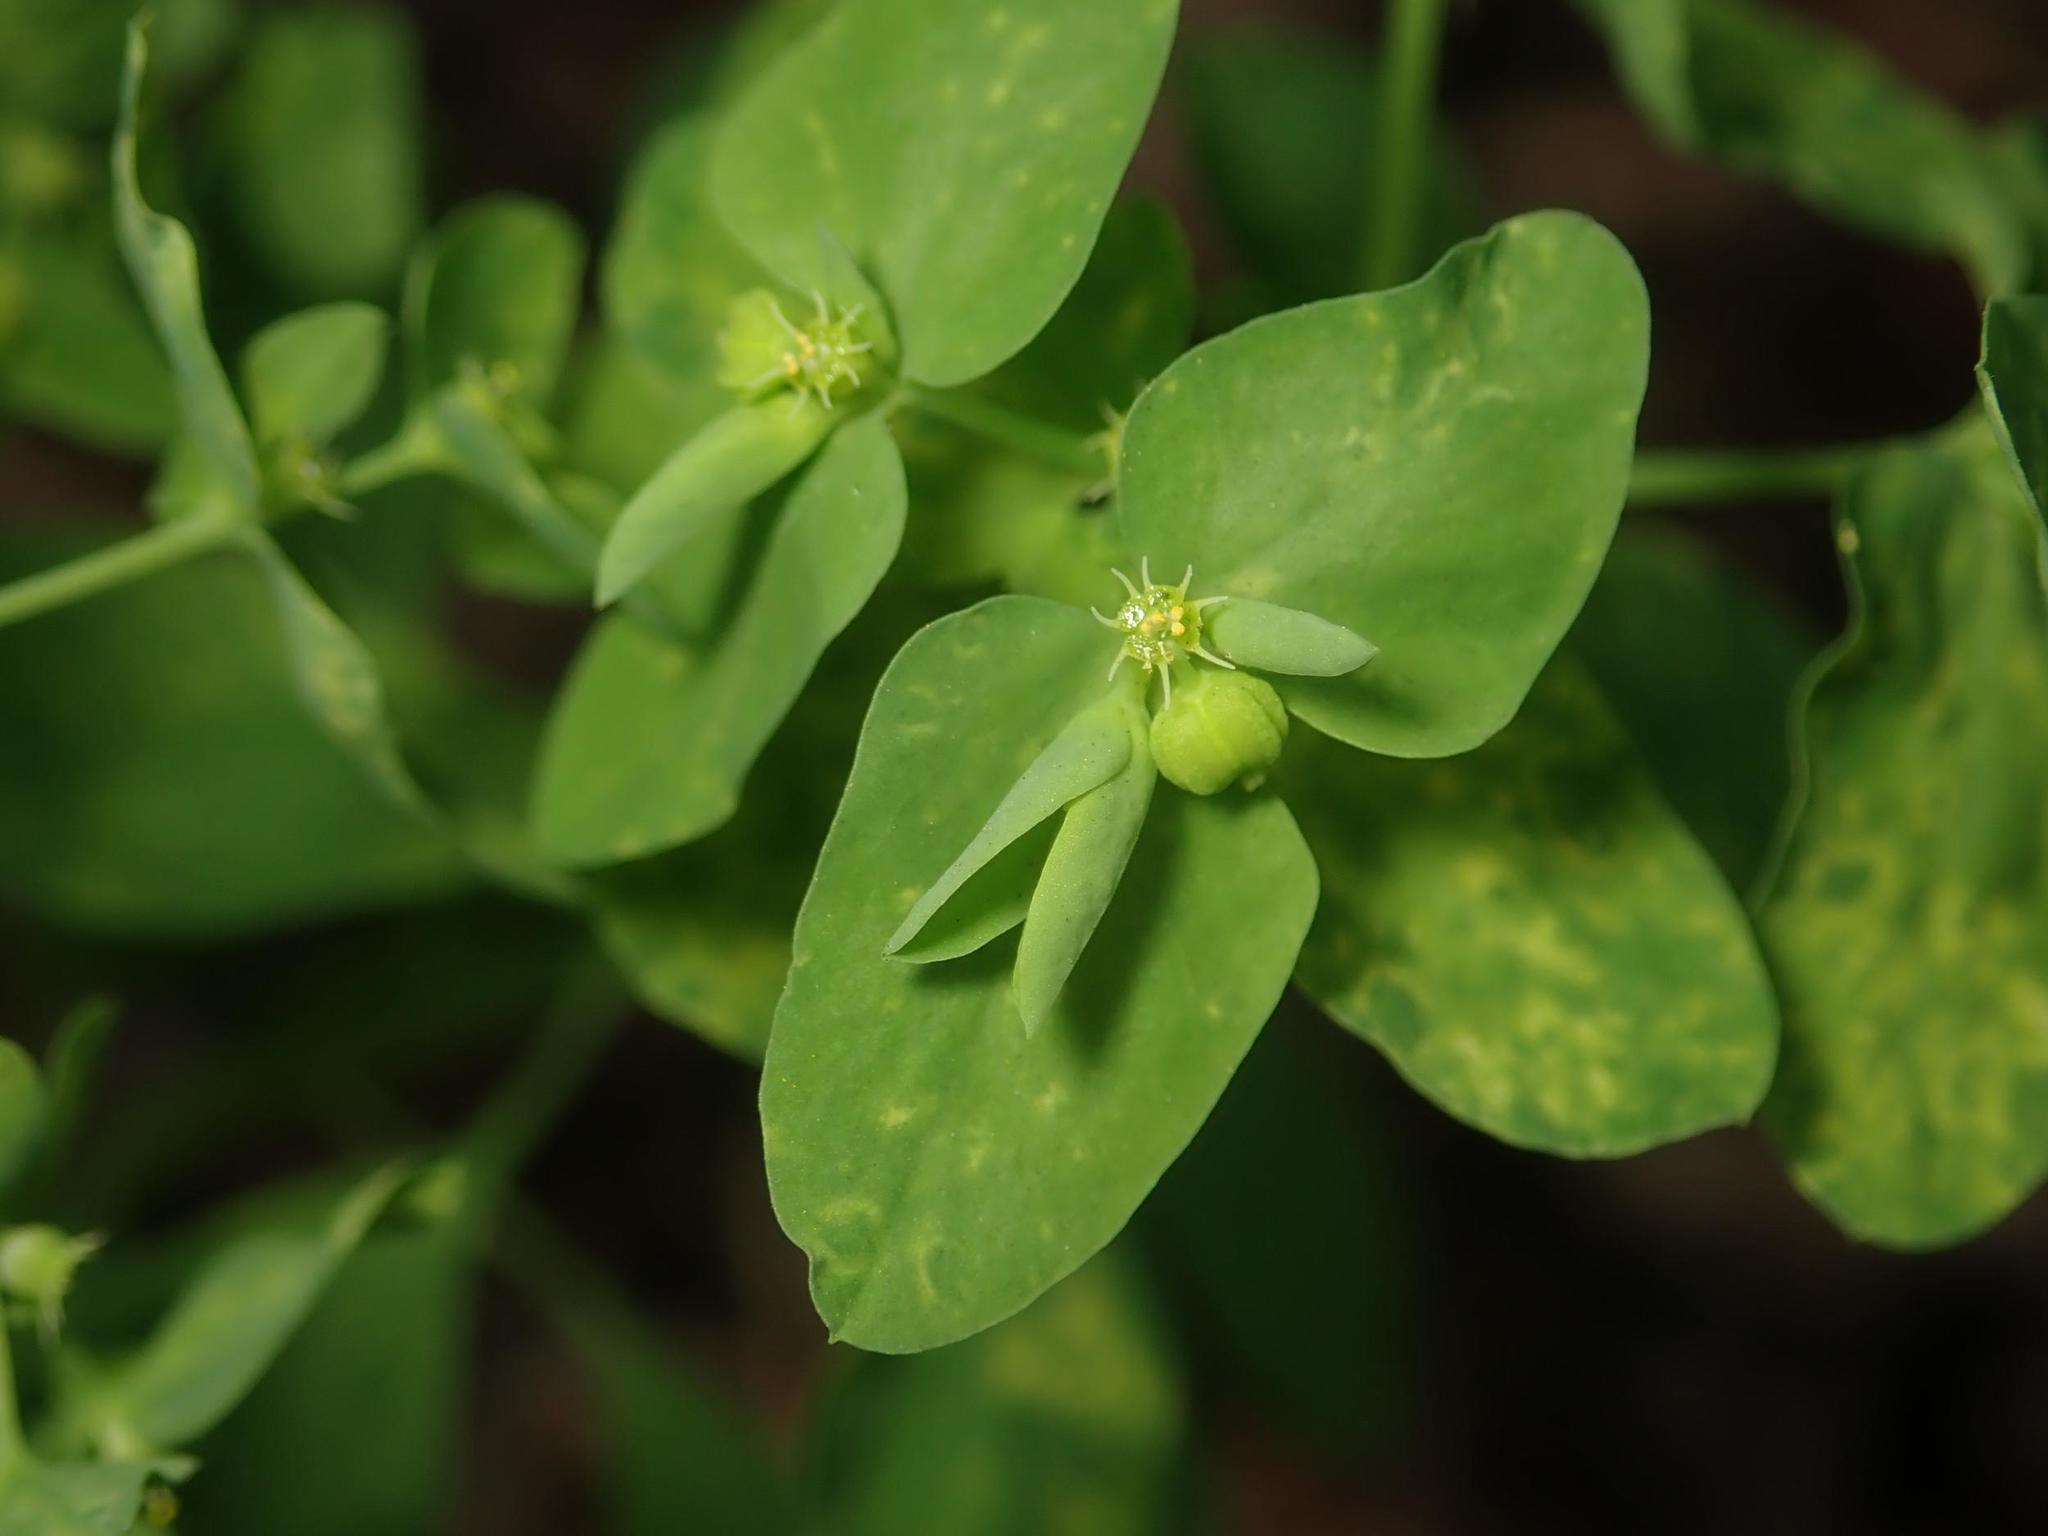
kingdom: Plantae
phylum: Tracheophyta
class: Magnoliopsida
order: Malpighiales
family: Euphorbiaceae
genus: Euphorbia
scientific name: Euphorbia peplus
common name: Petty spurge
